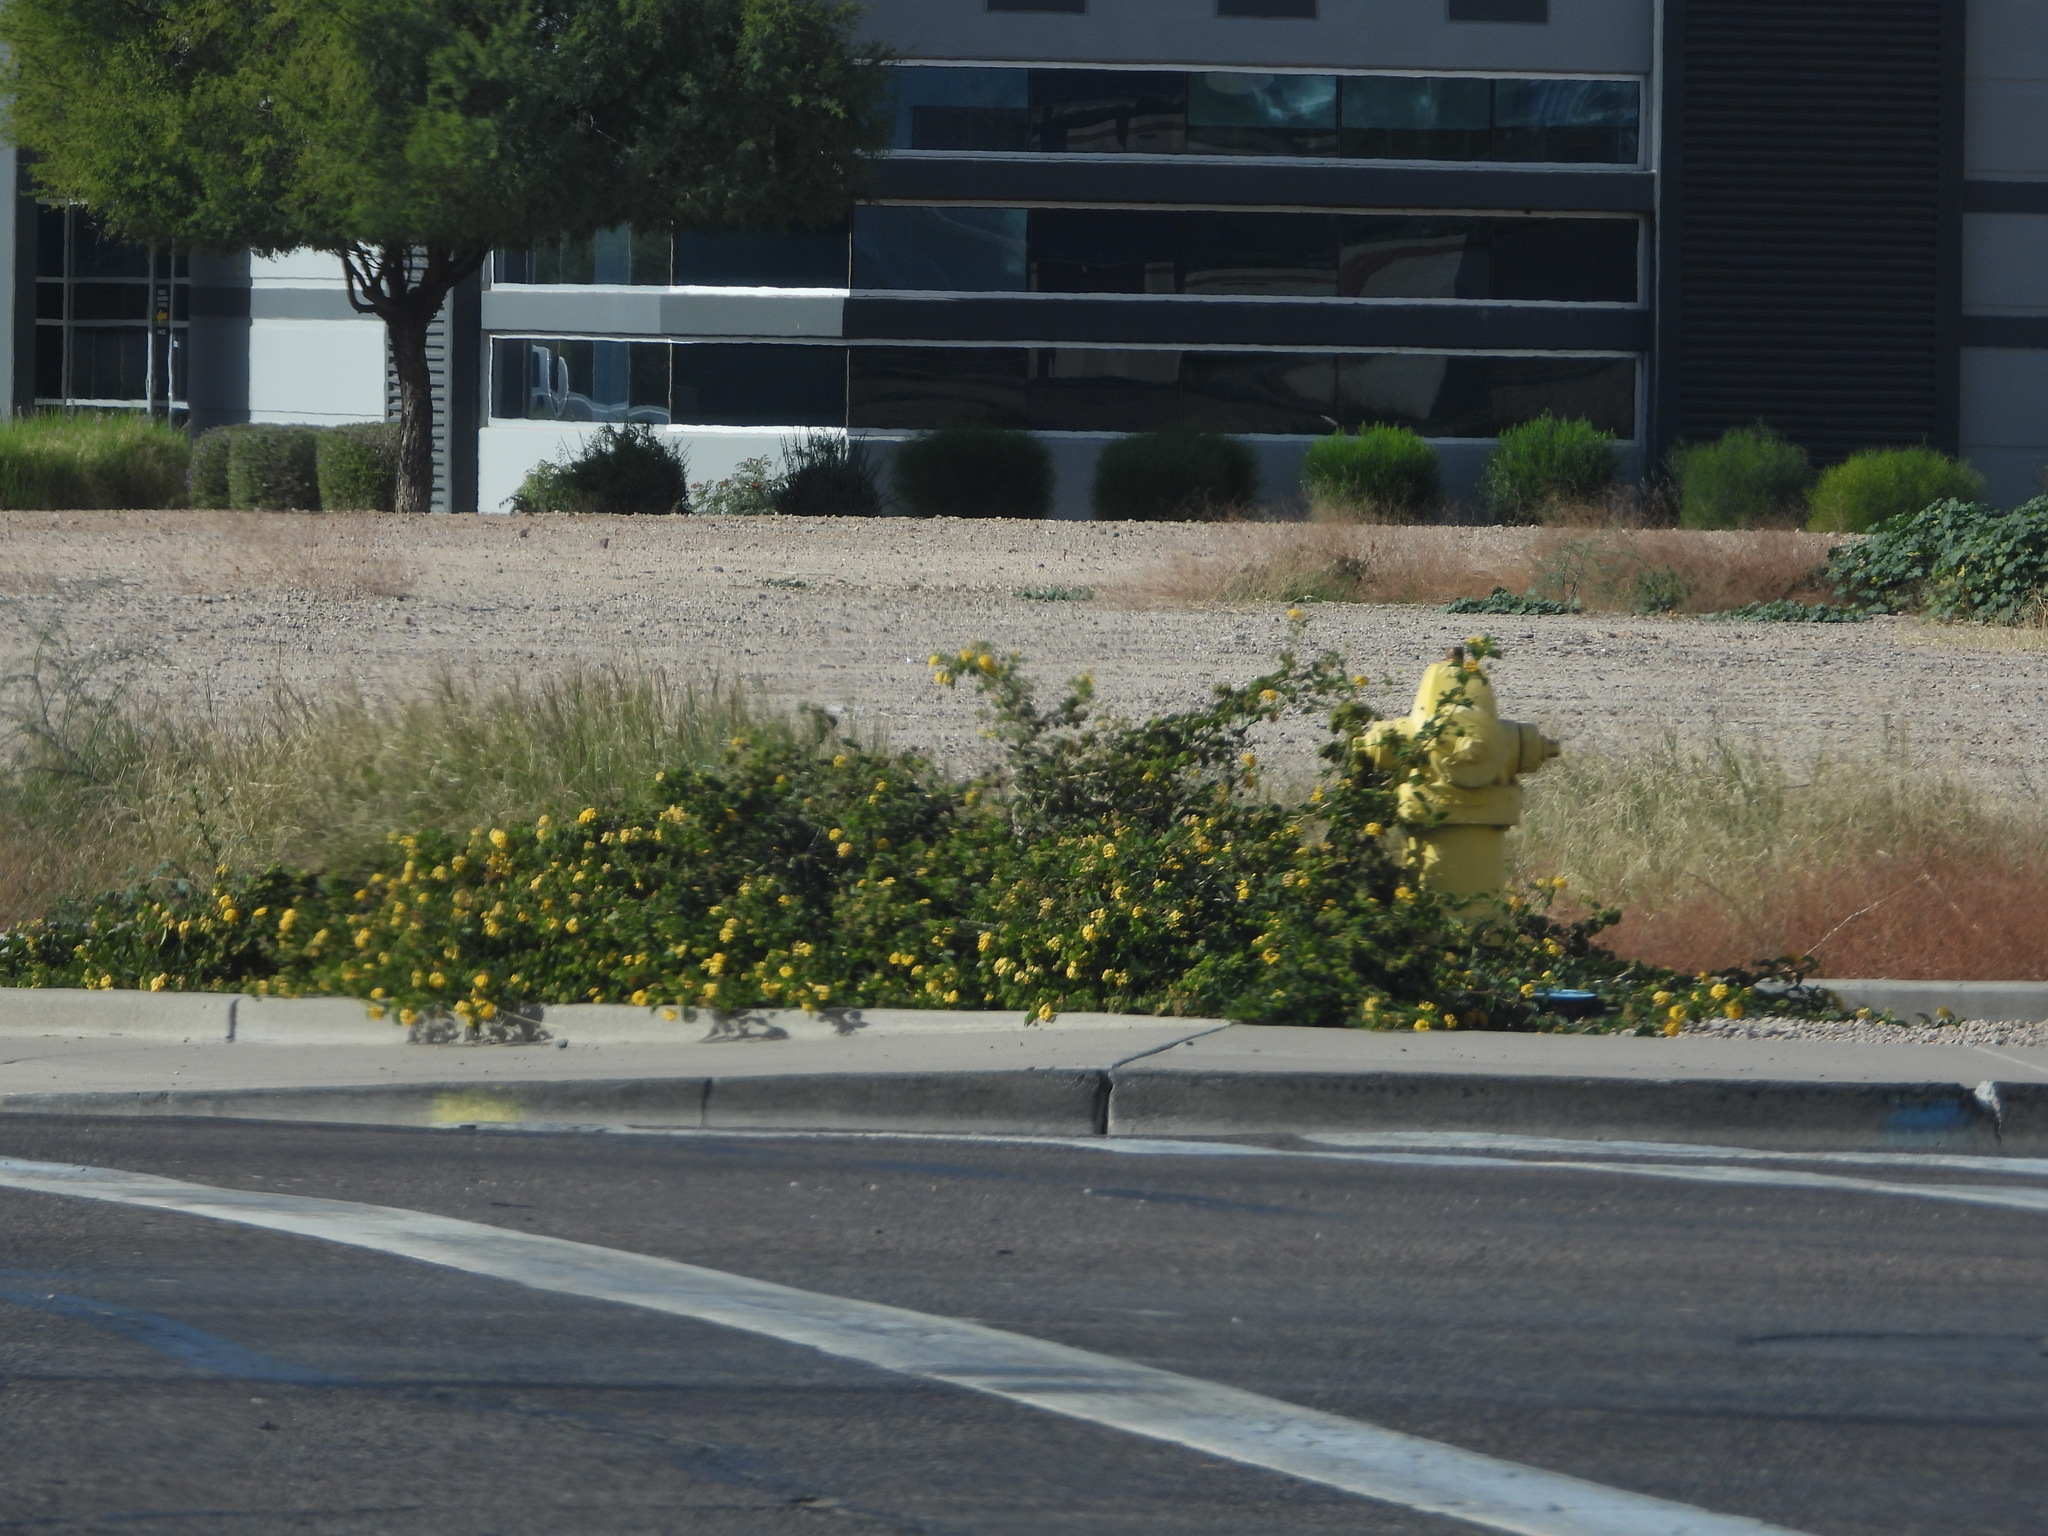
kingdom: Plantae
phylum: Tracheophyta
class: Magnoliopsida
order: Lamiales
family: Verbenaceae
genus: Lantana
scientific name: Lantana polyacantha
